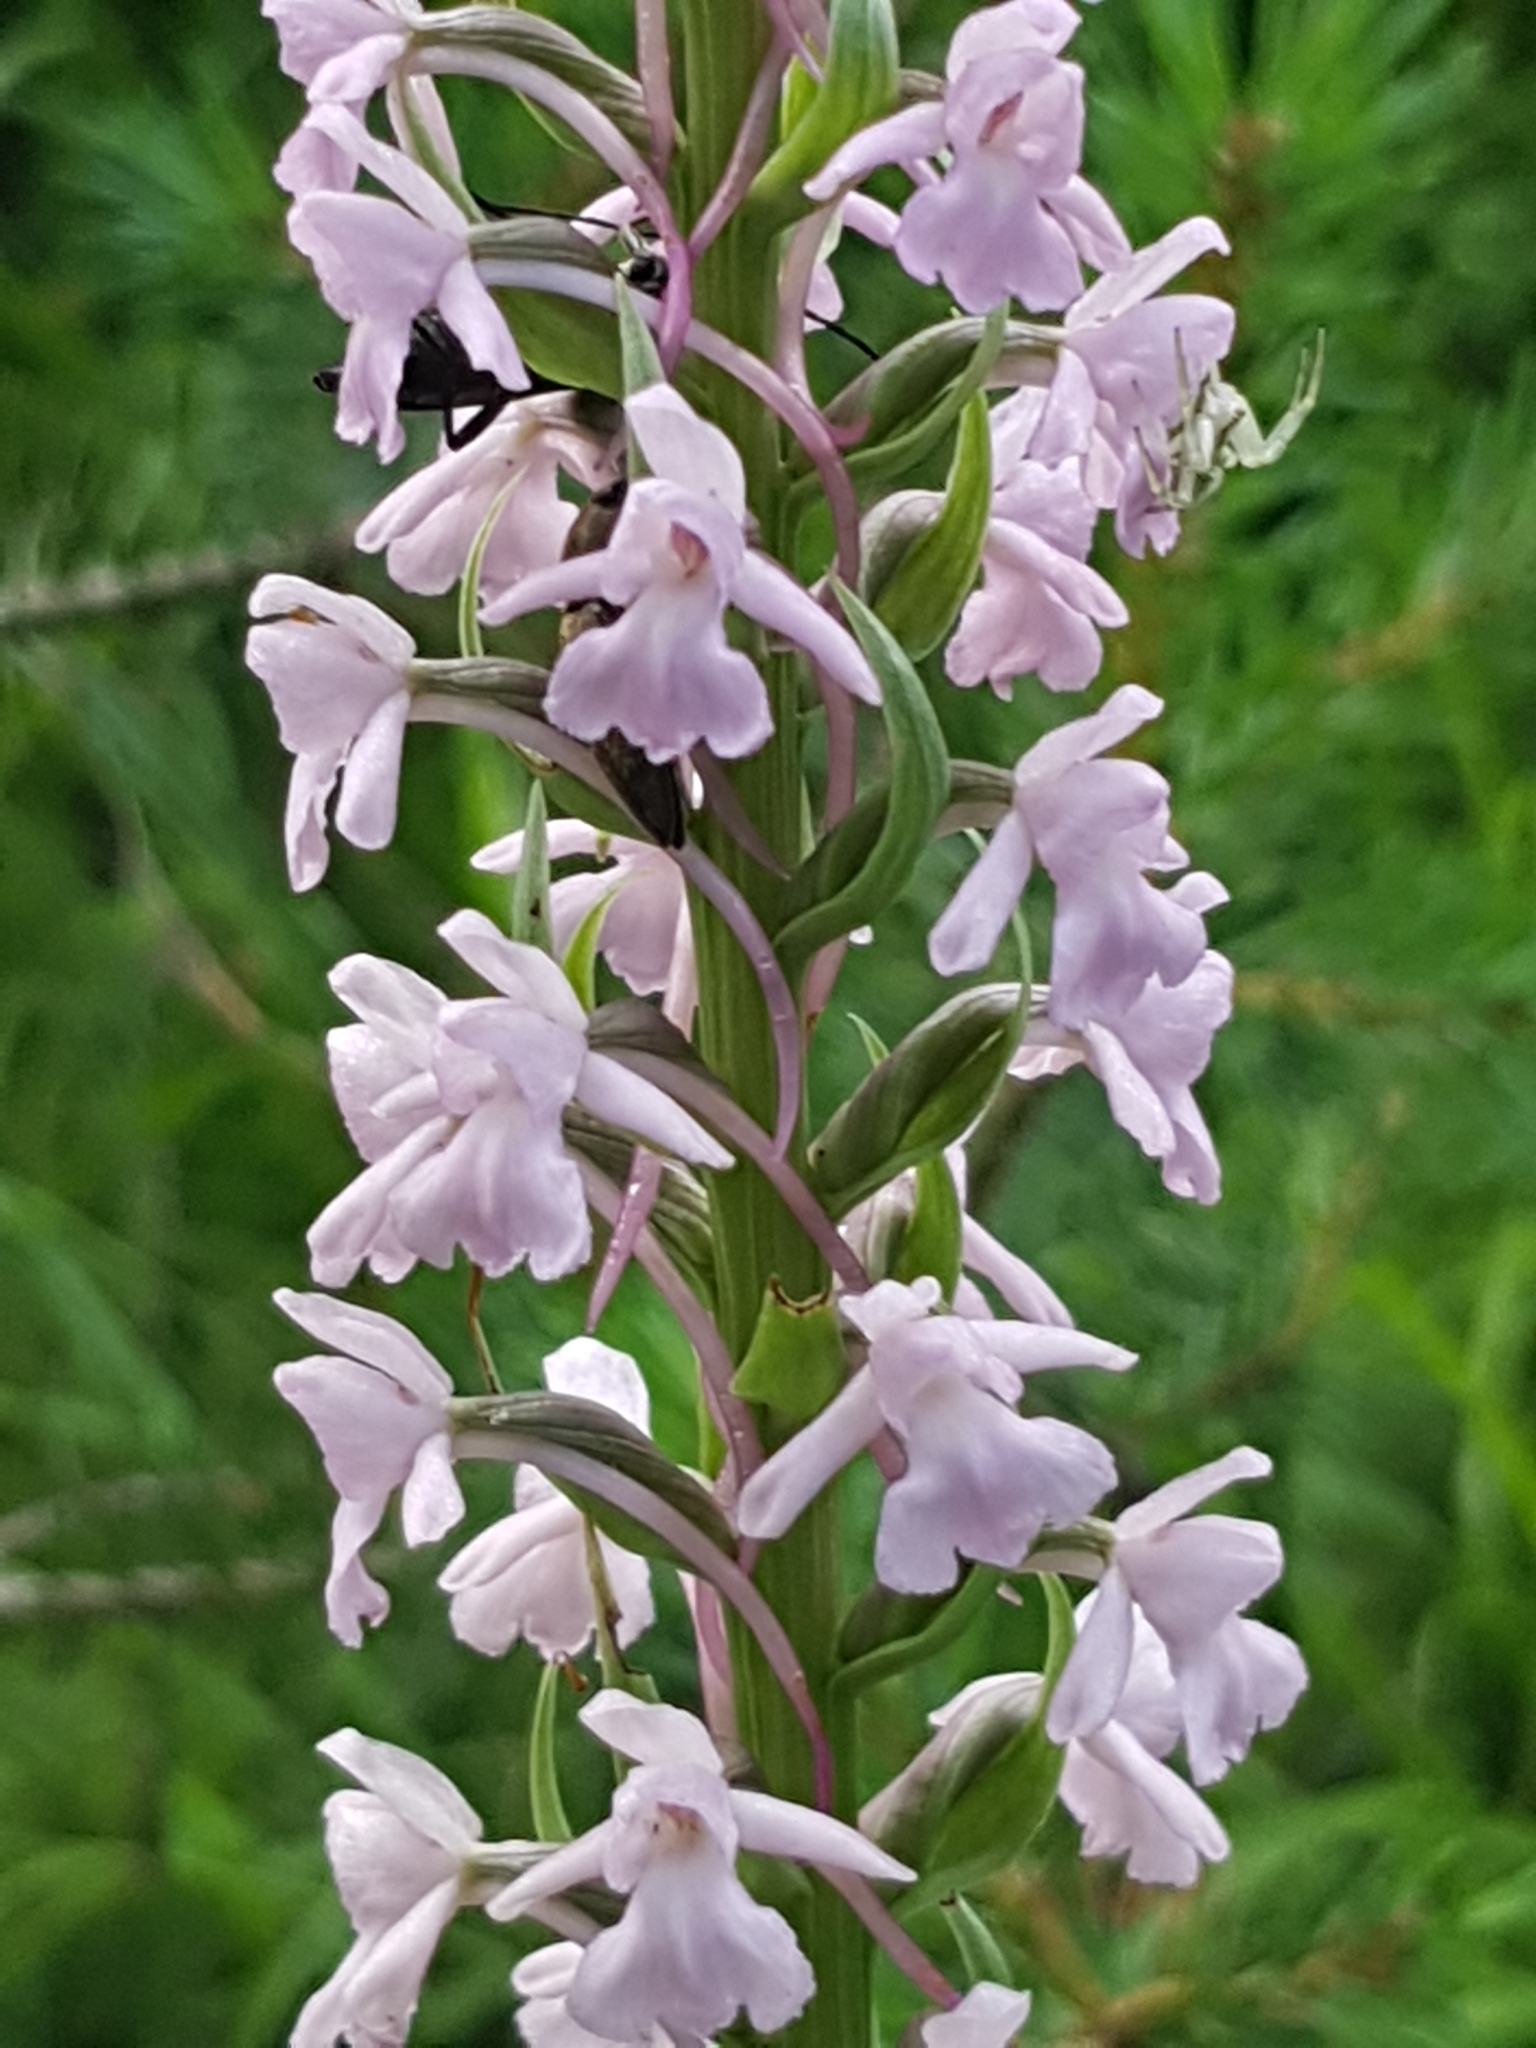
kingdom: Plantae
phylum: Tracheophyta
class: Liliopsida
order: Asparagales
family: Orchidaceae
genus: Gymnadenia
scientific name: Gymnadenia conopsea
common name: Fragrant orchid
